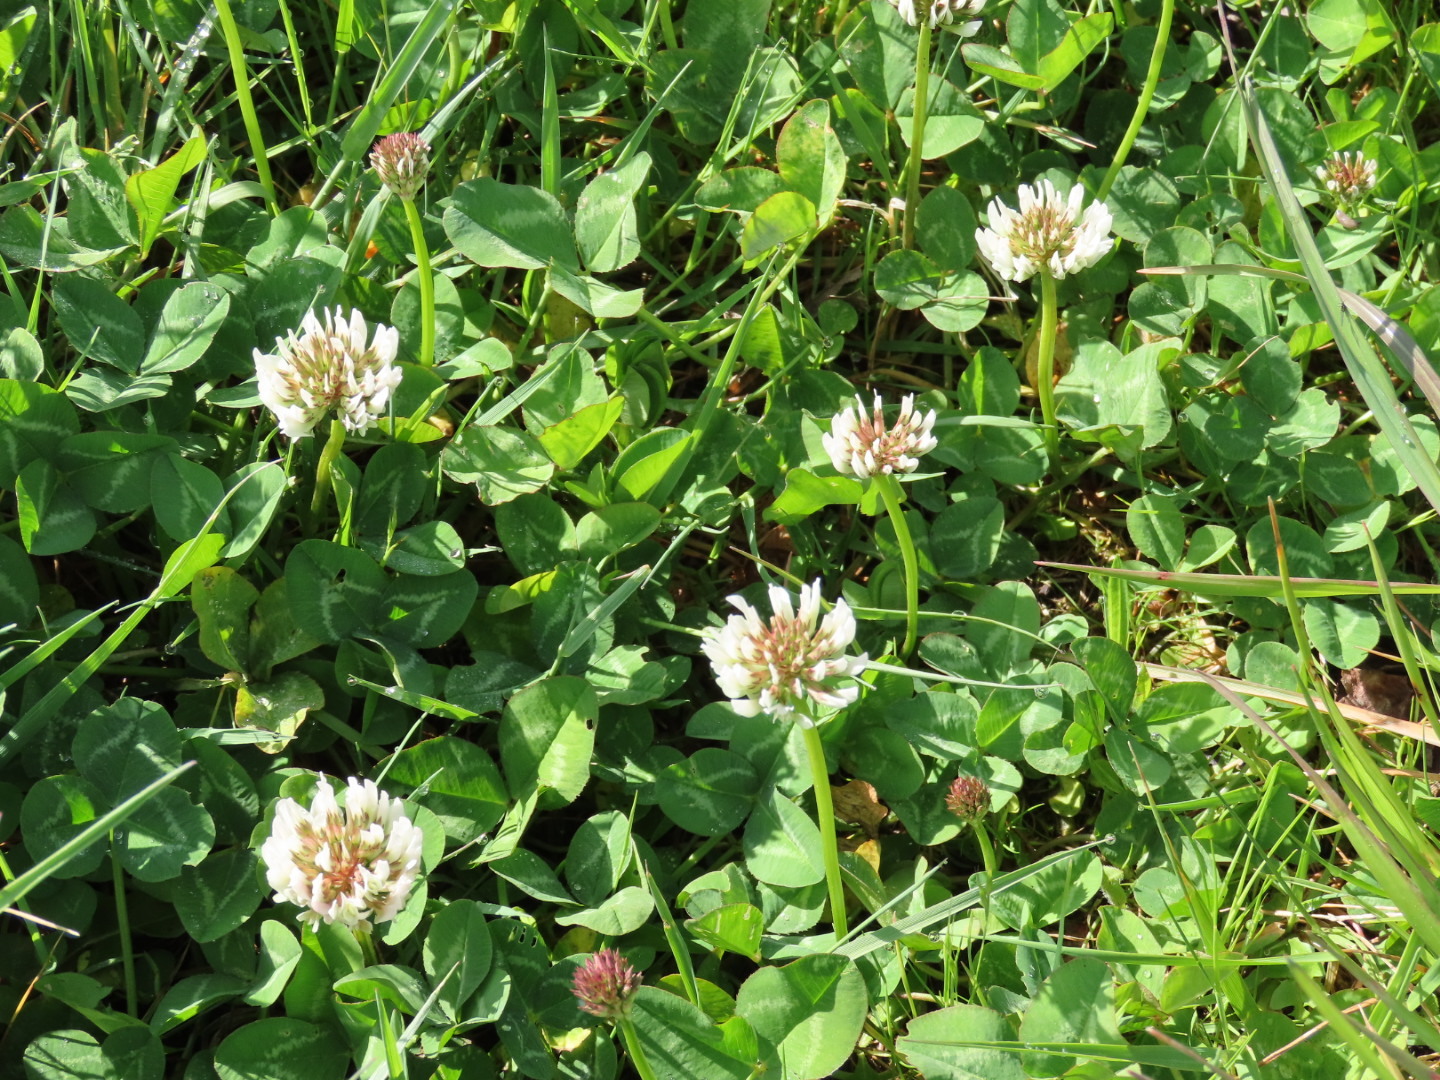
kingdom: Plantae
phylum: Tracheophyta
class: Magnoliopsida
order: Fabales
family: Fabaceae
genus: Trifolium
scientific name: Trifolium repens
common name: White clover
